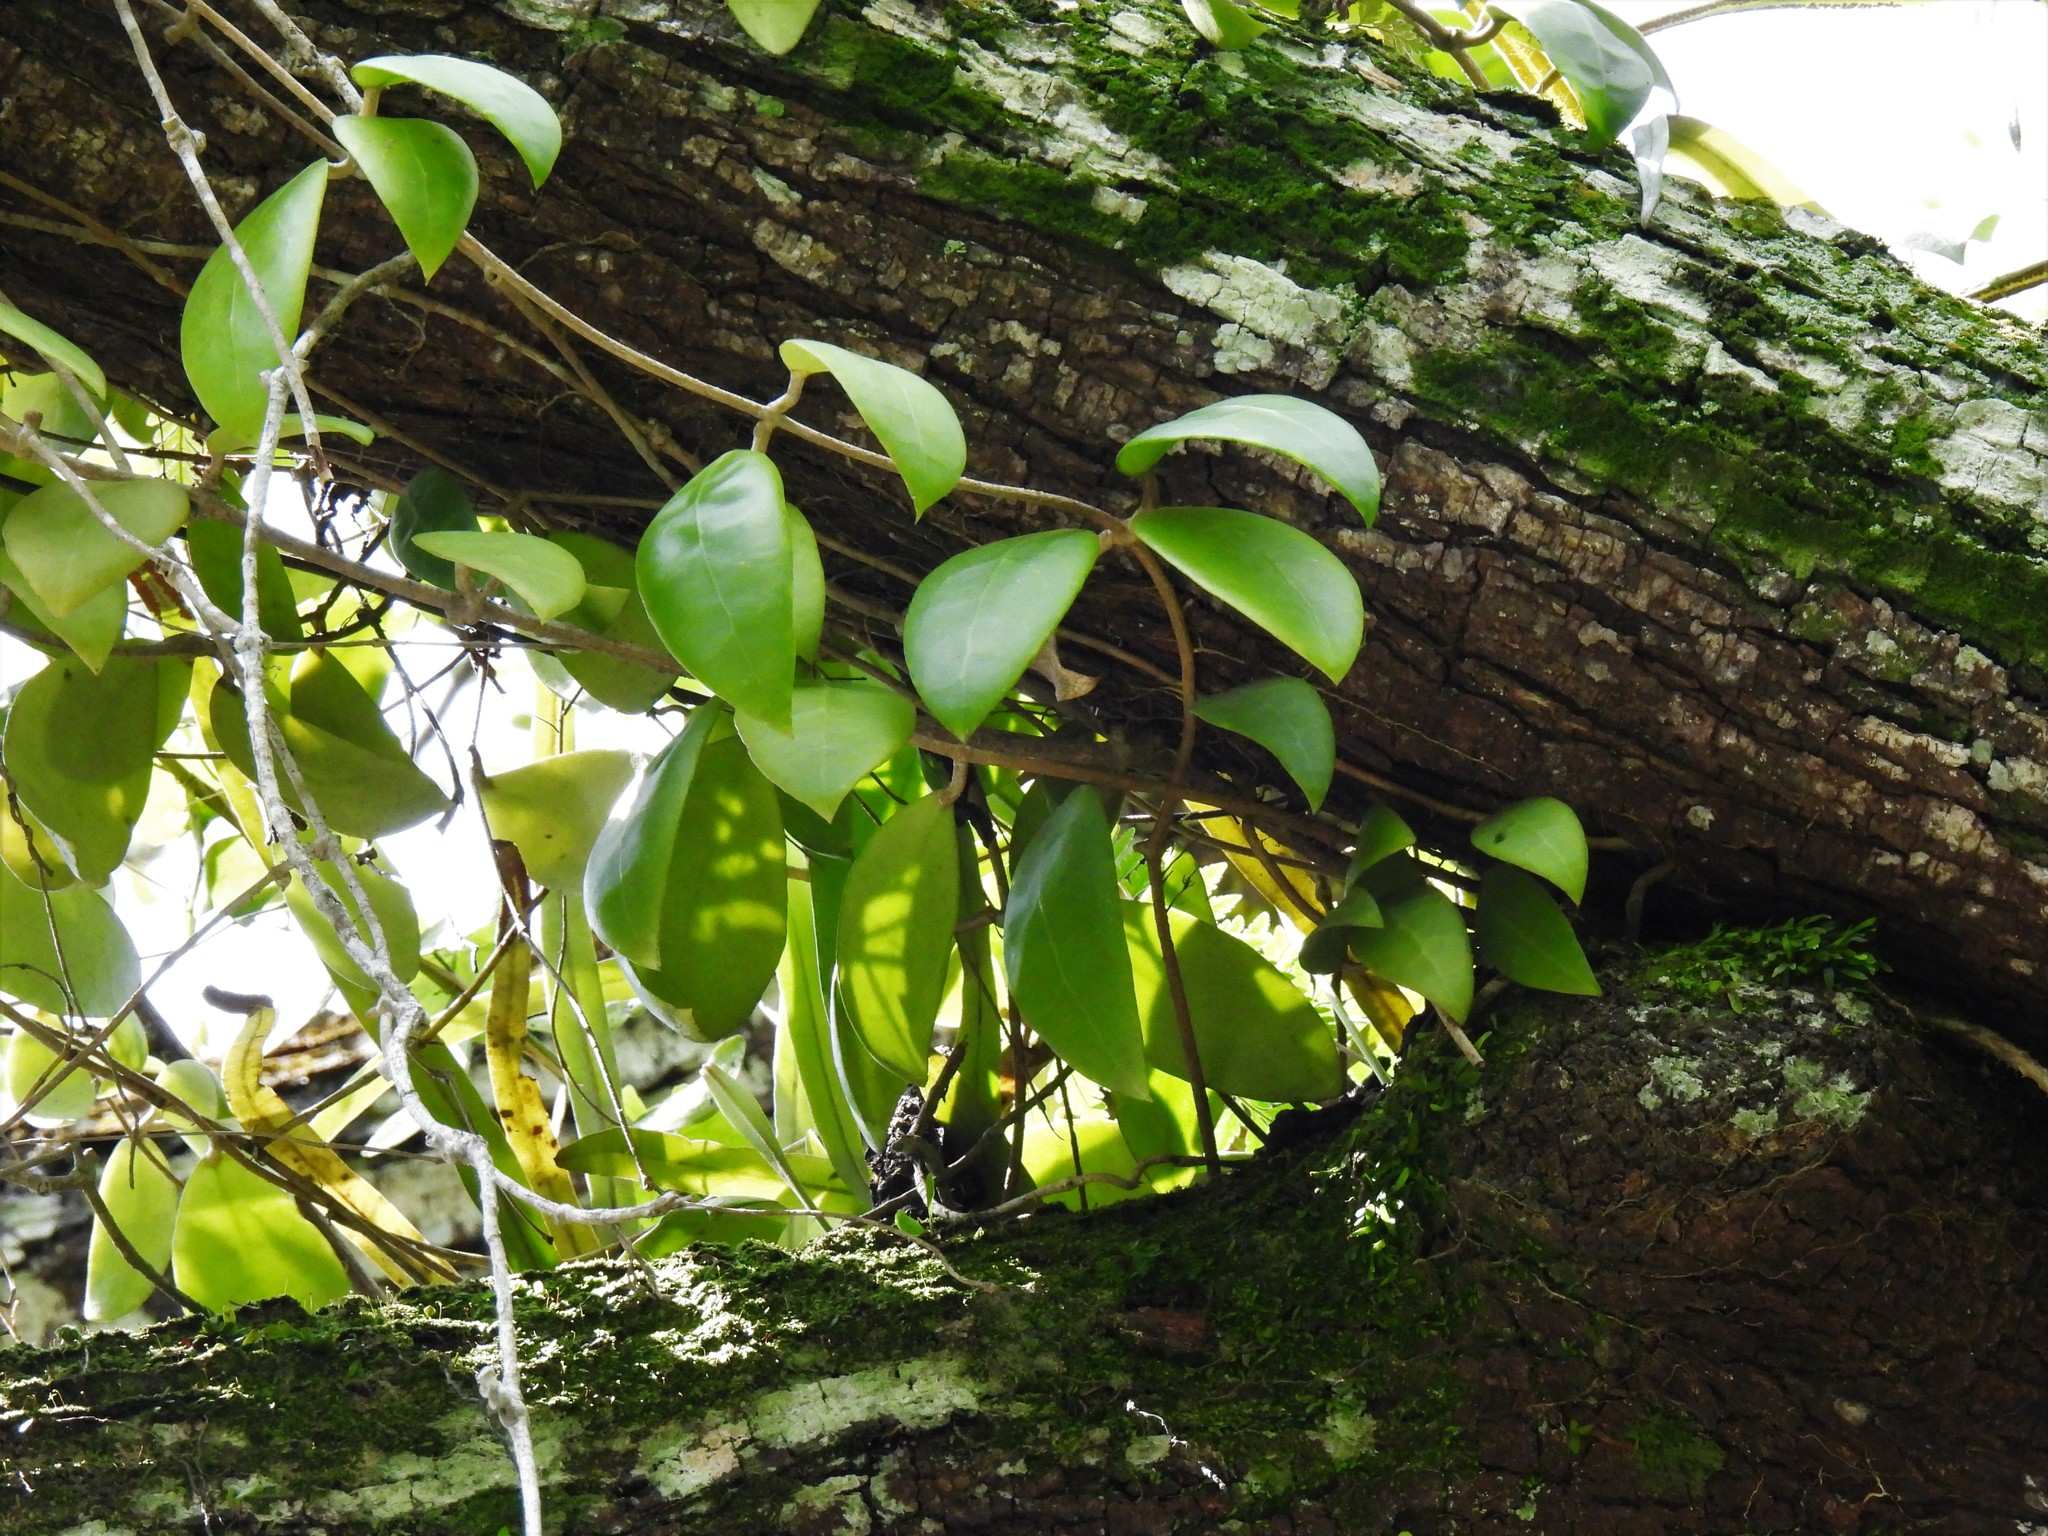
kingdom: Plantae
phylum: Tracheophyta
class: Magnoliopsida
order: Gentianales
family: Apocynaceae
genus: Hoya
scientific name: Hoya diversifolia
